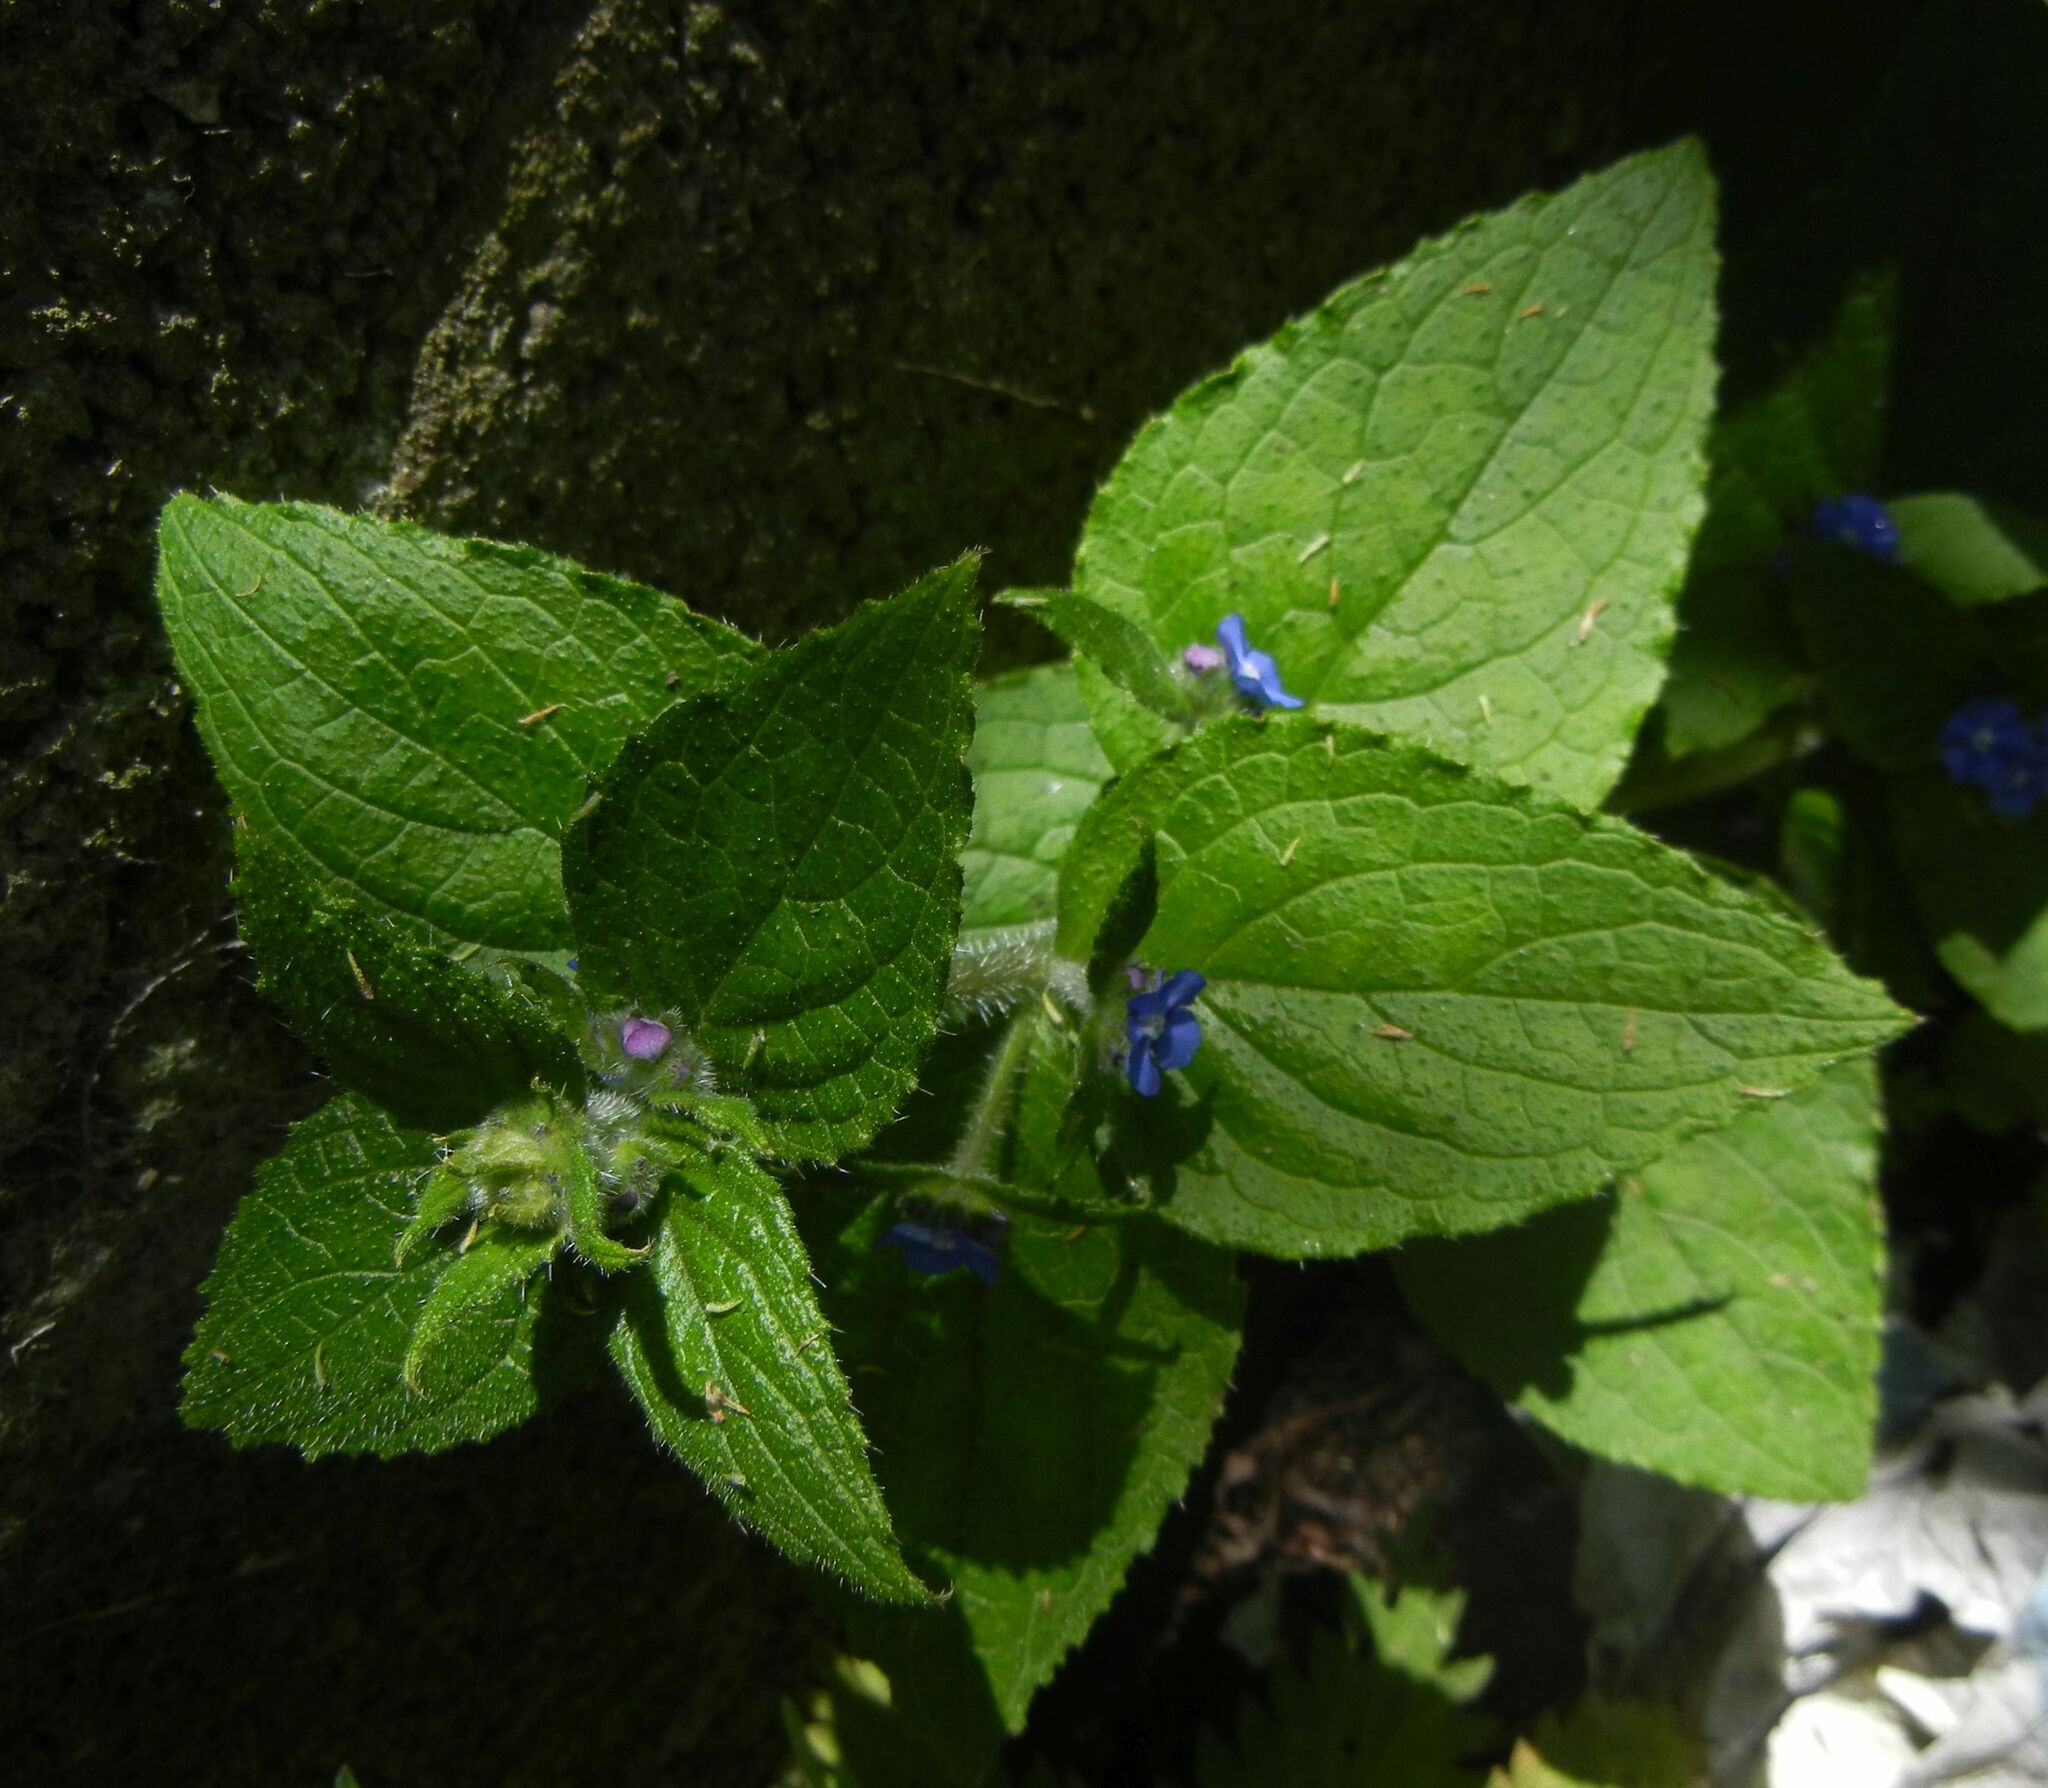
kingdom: Plantae
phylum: Tracheophyta
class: Magnoliopsida
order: Boraginales
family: Boraginaceae
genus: Pentaglottis
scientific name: Pentaglottis sempervirens
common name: Green alkanet
